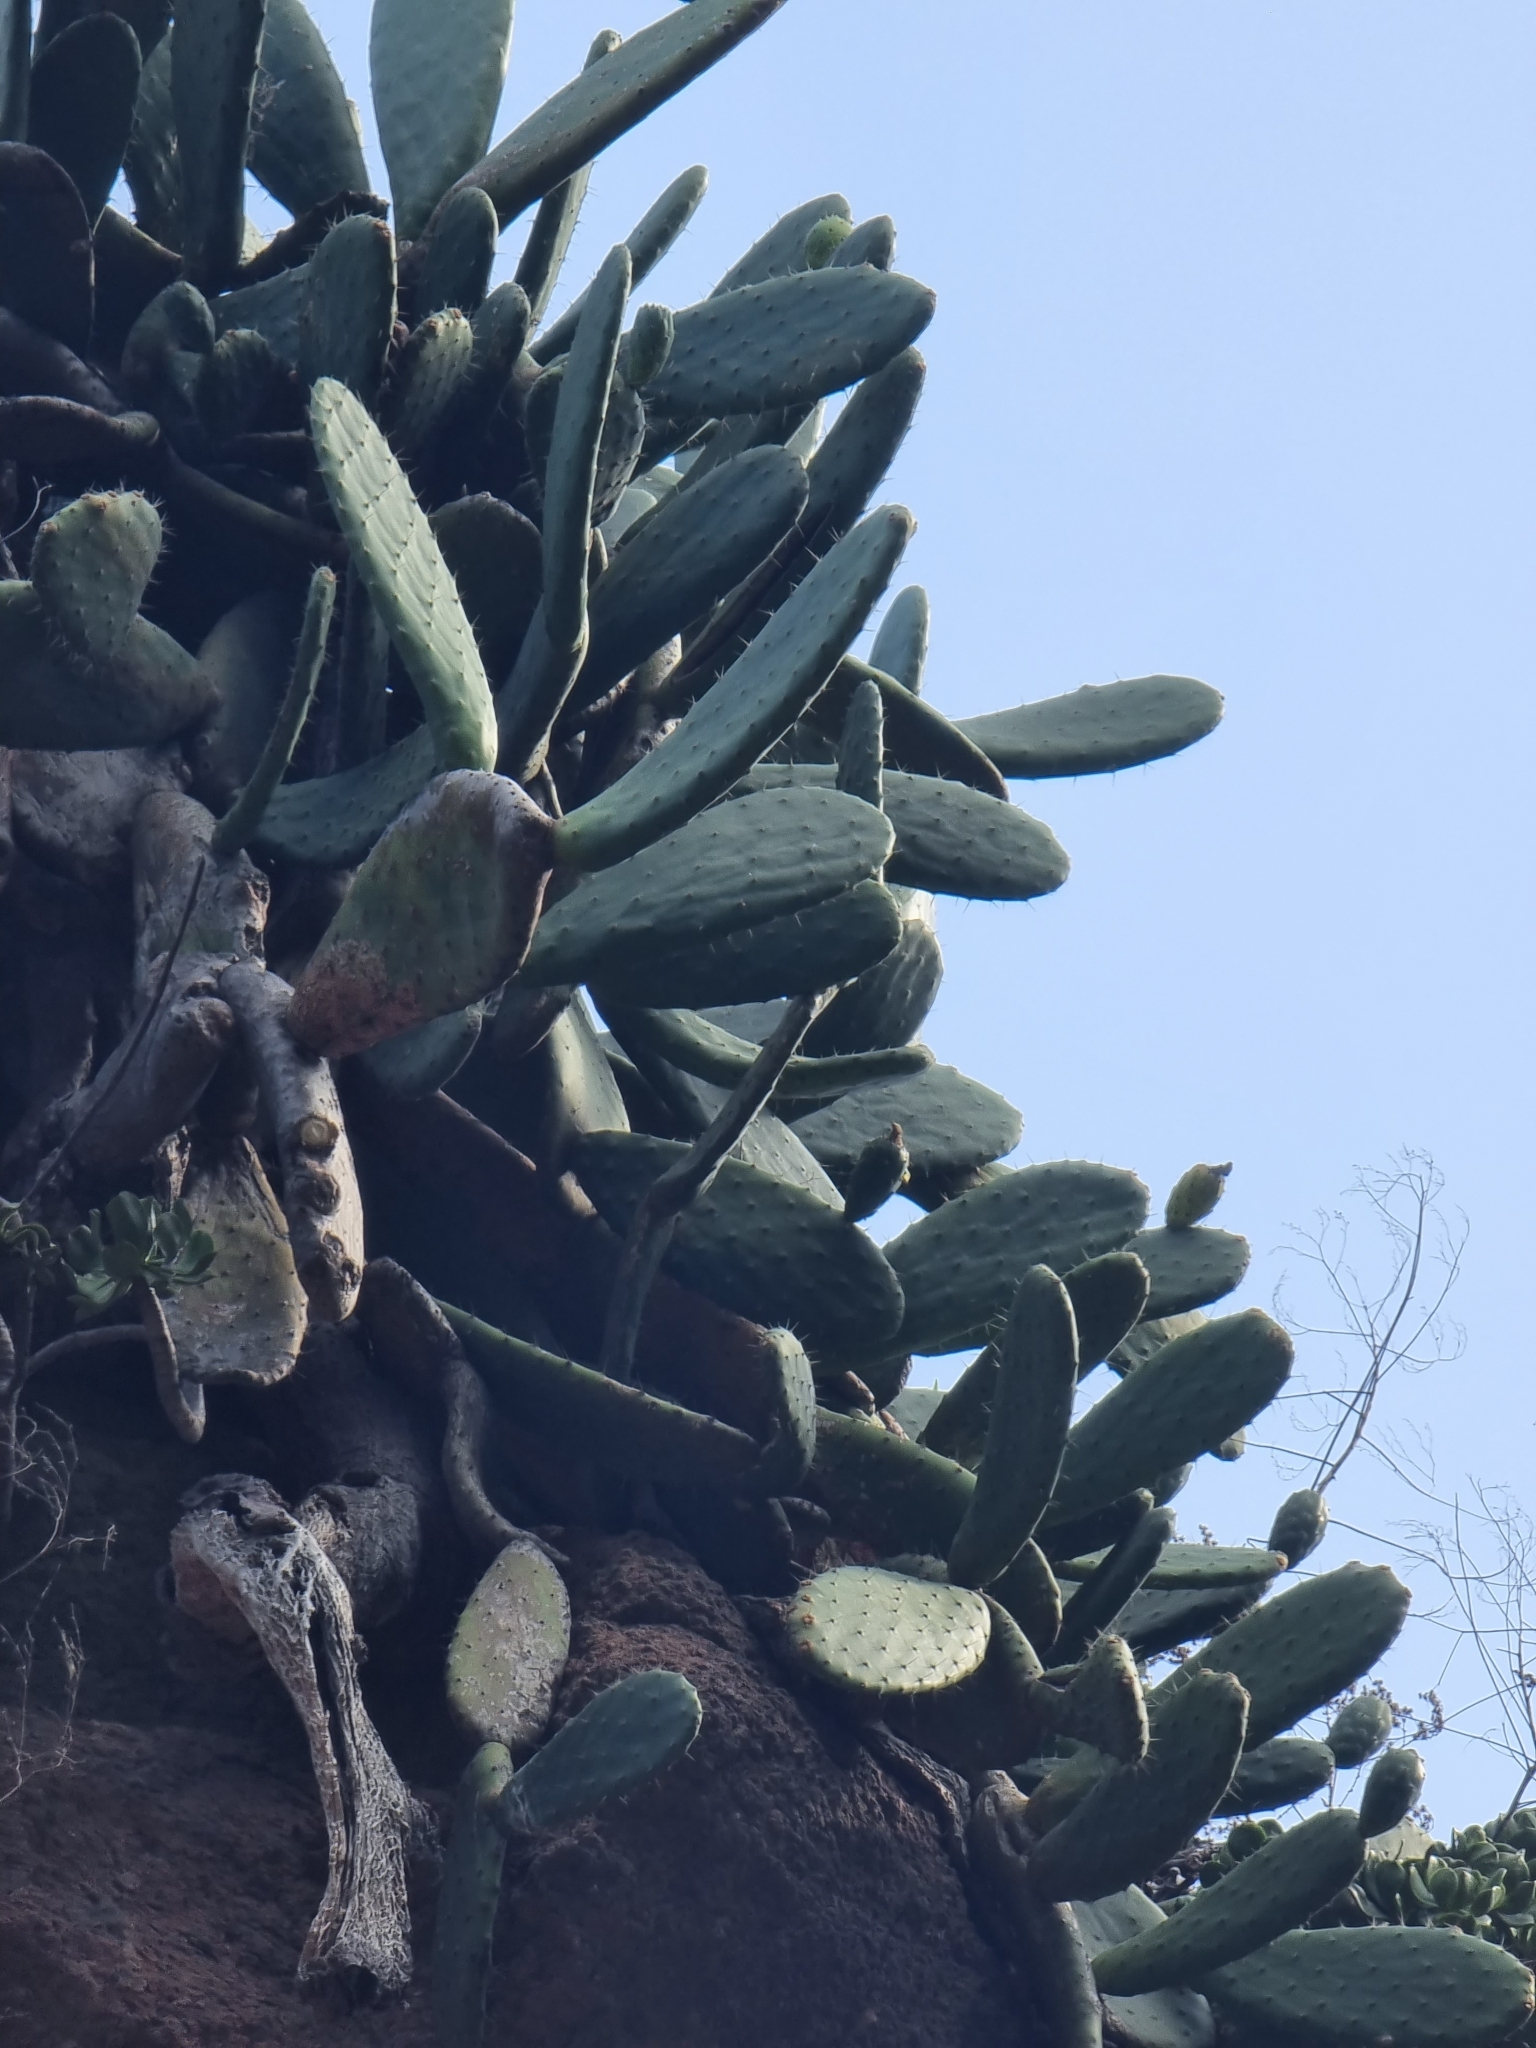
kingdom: Plantae
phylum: Tracheophyta
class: Magnoliopsida
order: Caryophyllales
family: Cactaceae
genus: Opuntia
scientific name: Opuntia ficus-indica
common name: Barbary fig
